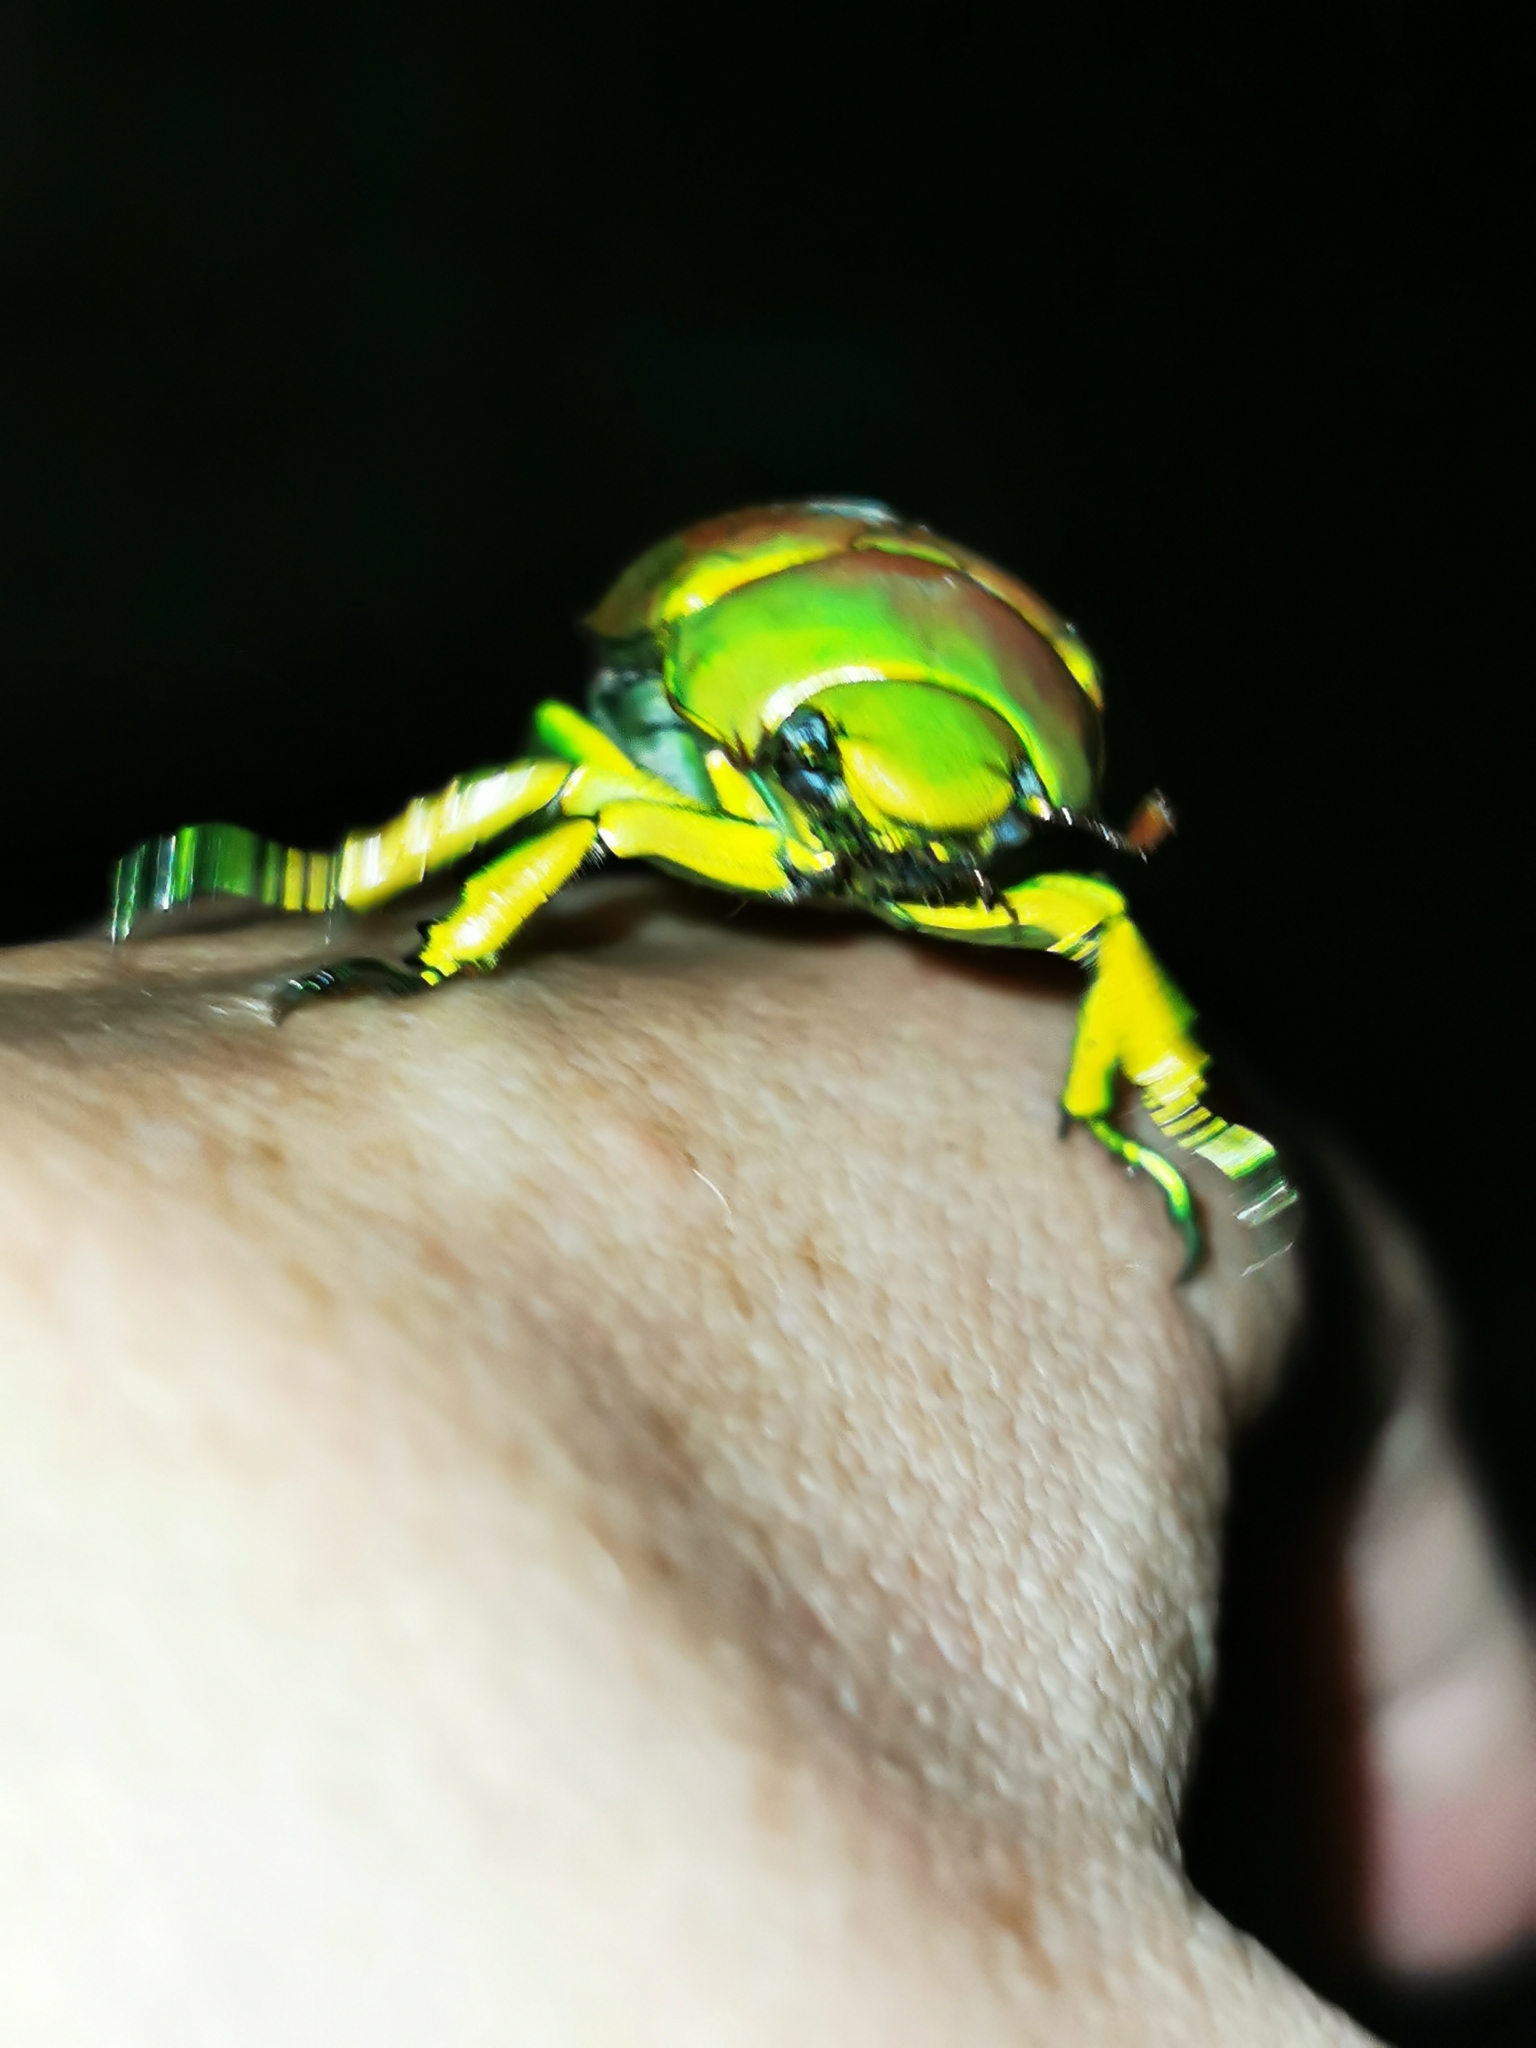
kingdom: Animalia
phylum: Arthropoda
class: Insecta
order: Coleoptera
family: Scarabaeidae
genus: Chrysina
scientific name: Chrysina psittacina
